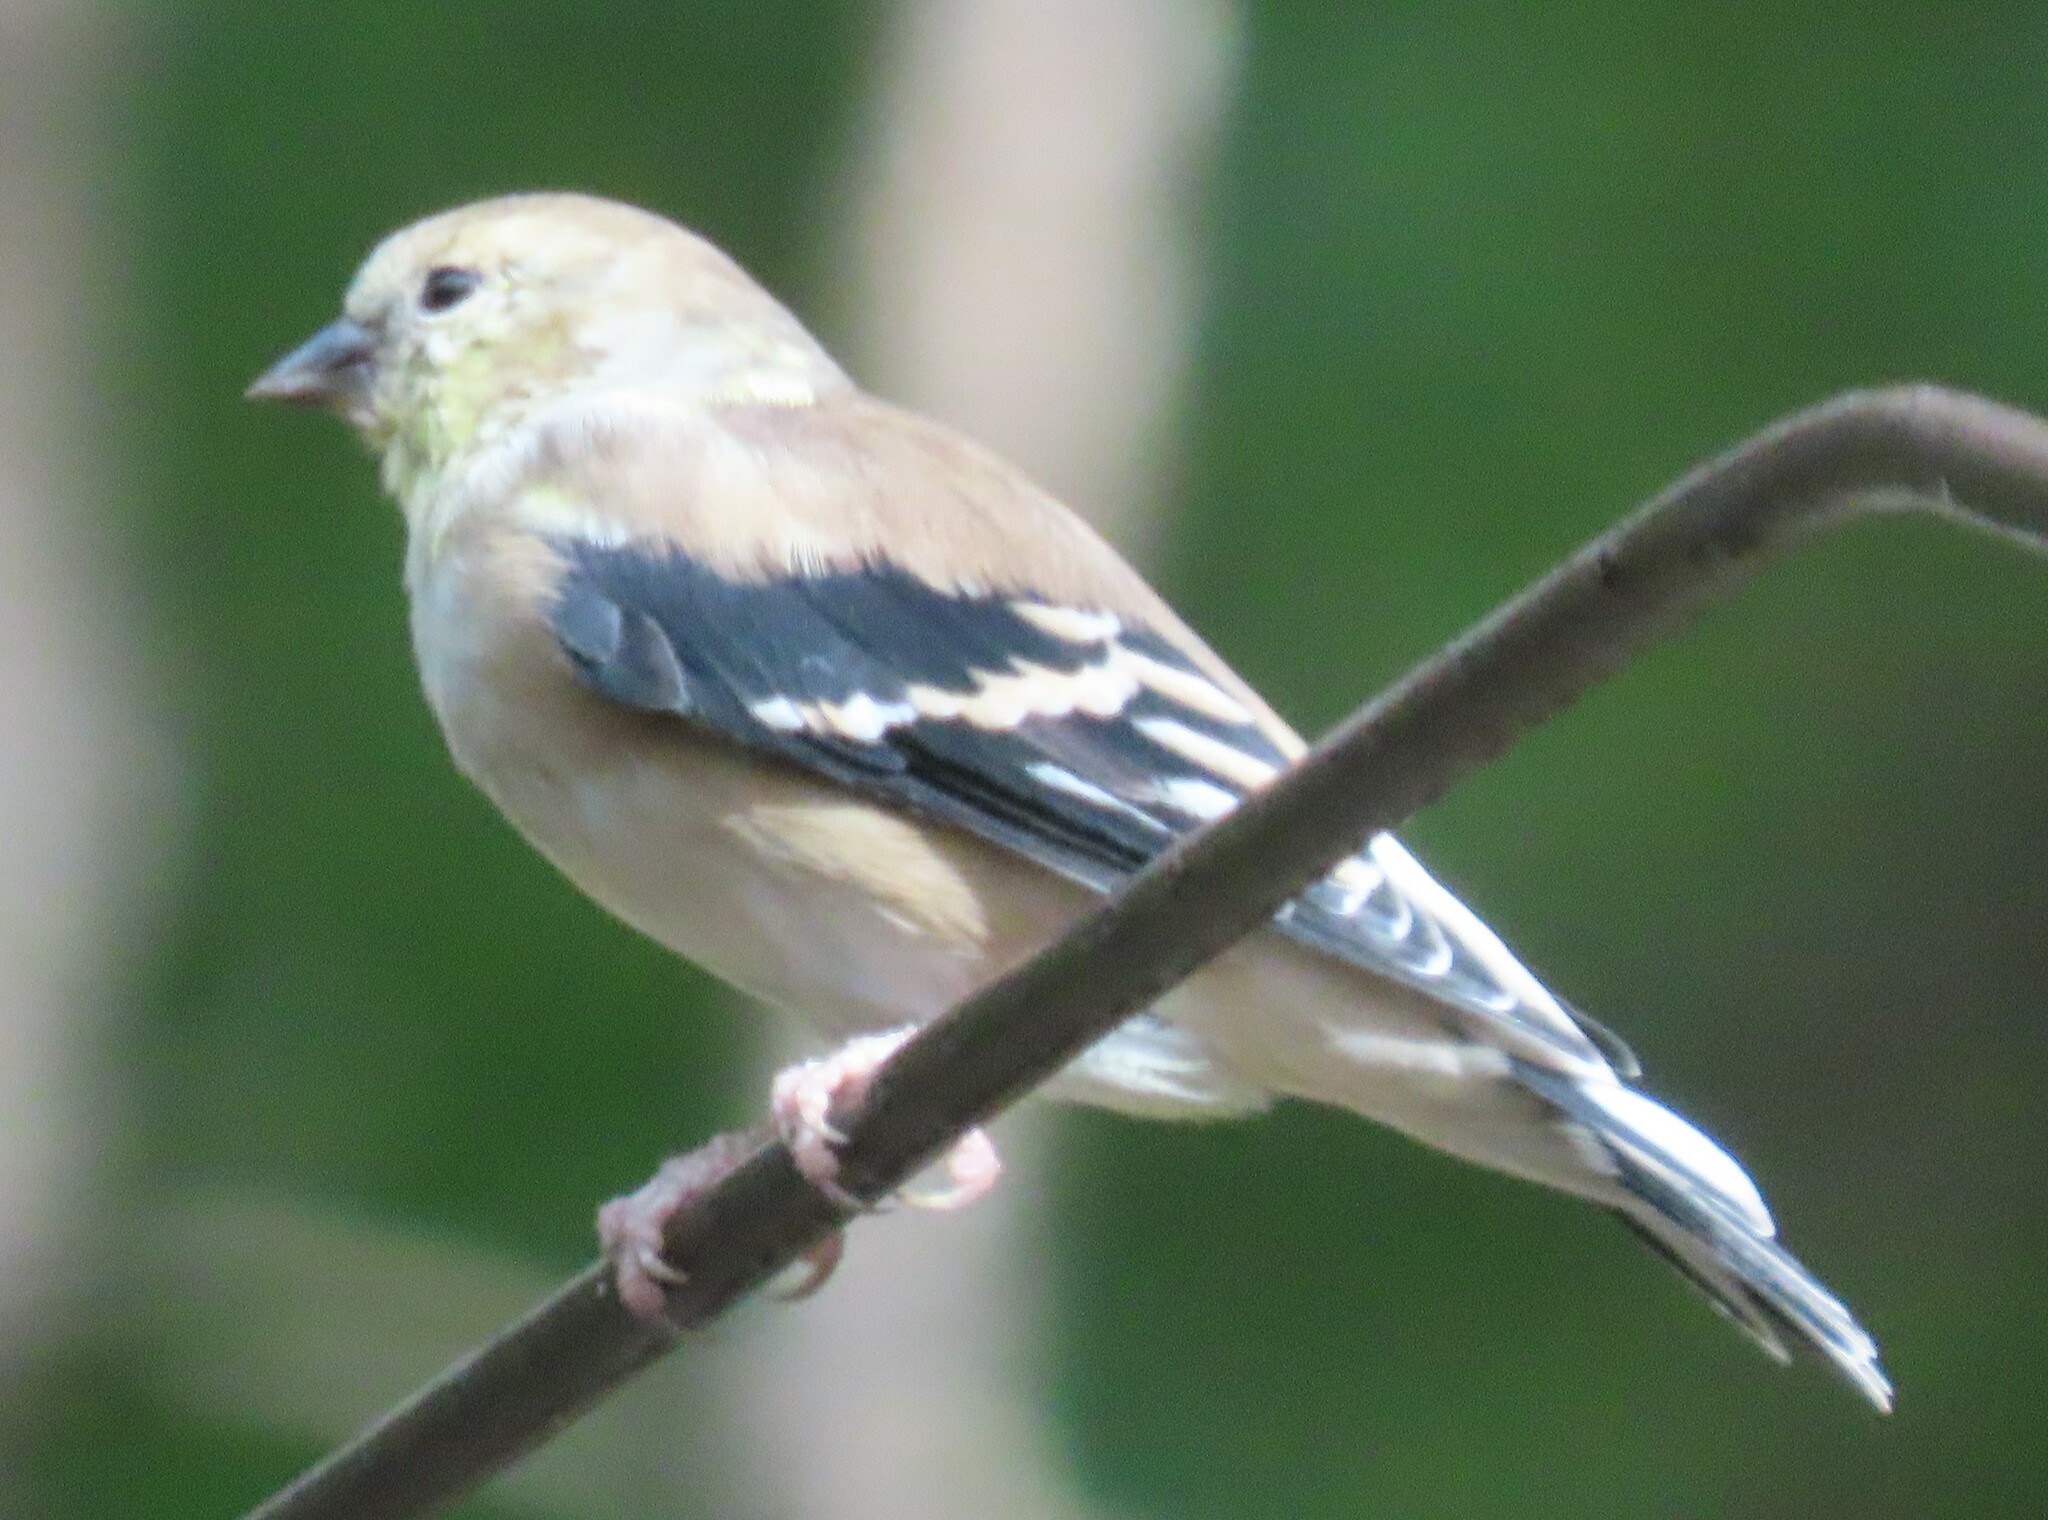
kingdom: Animalia
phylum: Chordata
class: Aves
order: Passeriformes
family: Fringillidae
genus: Spinus
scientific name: Spinus tristis
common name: American goldfinch
